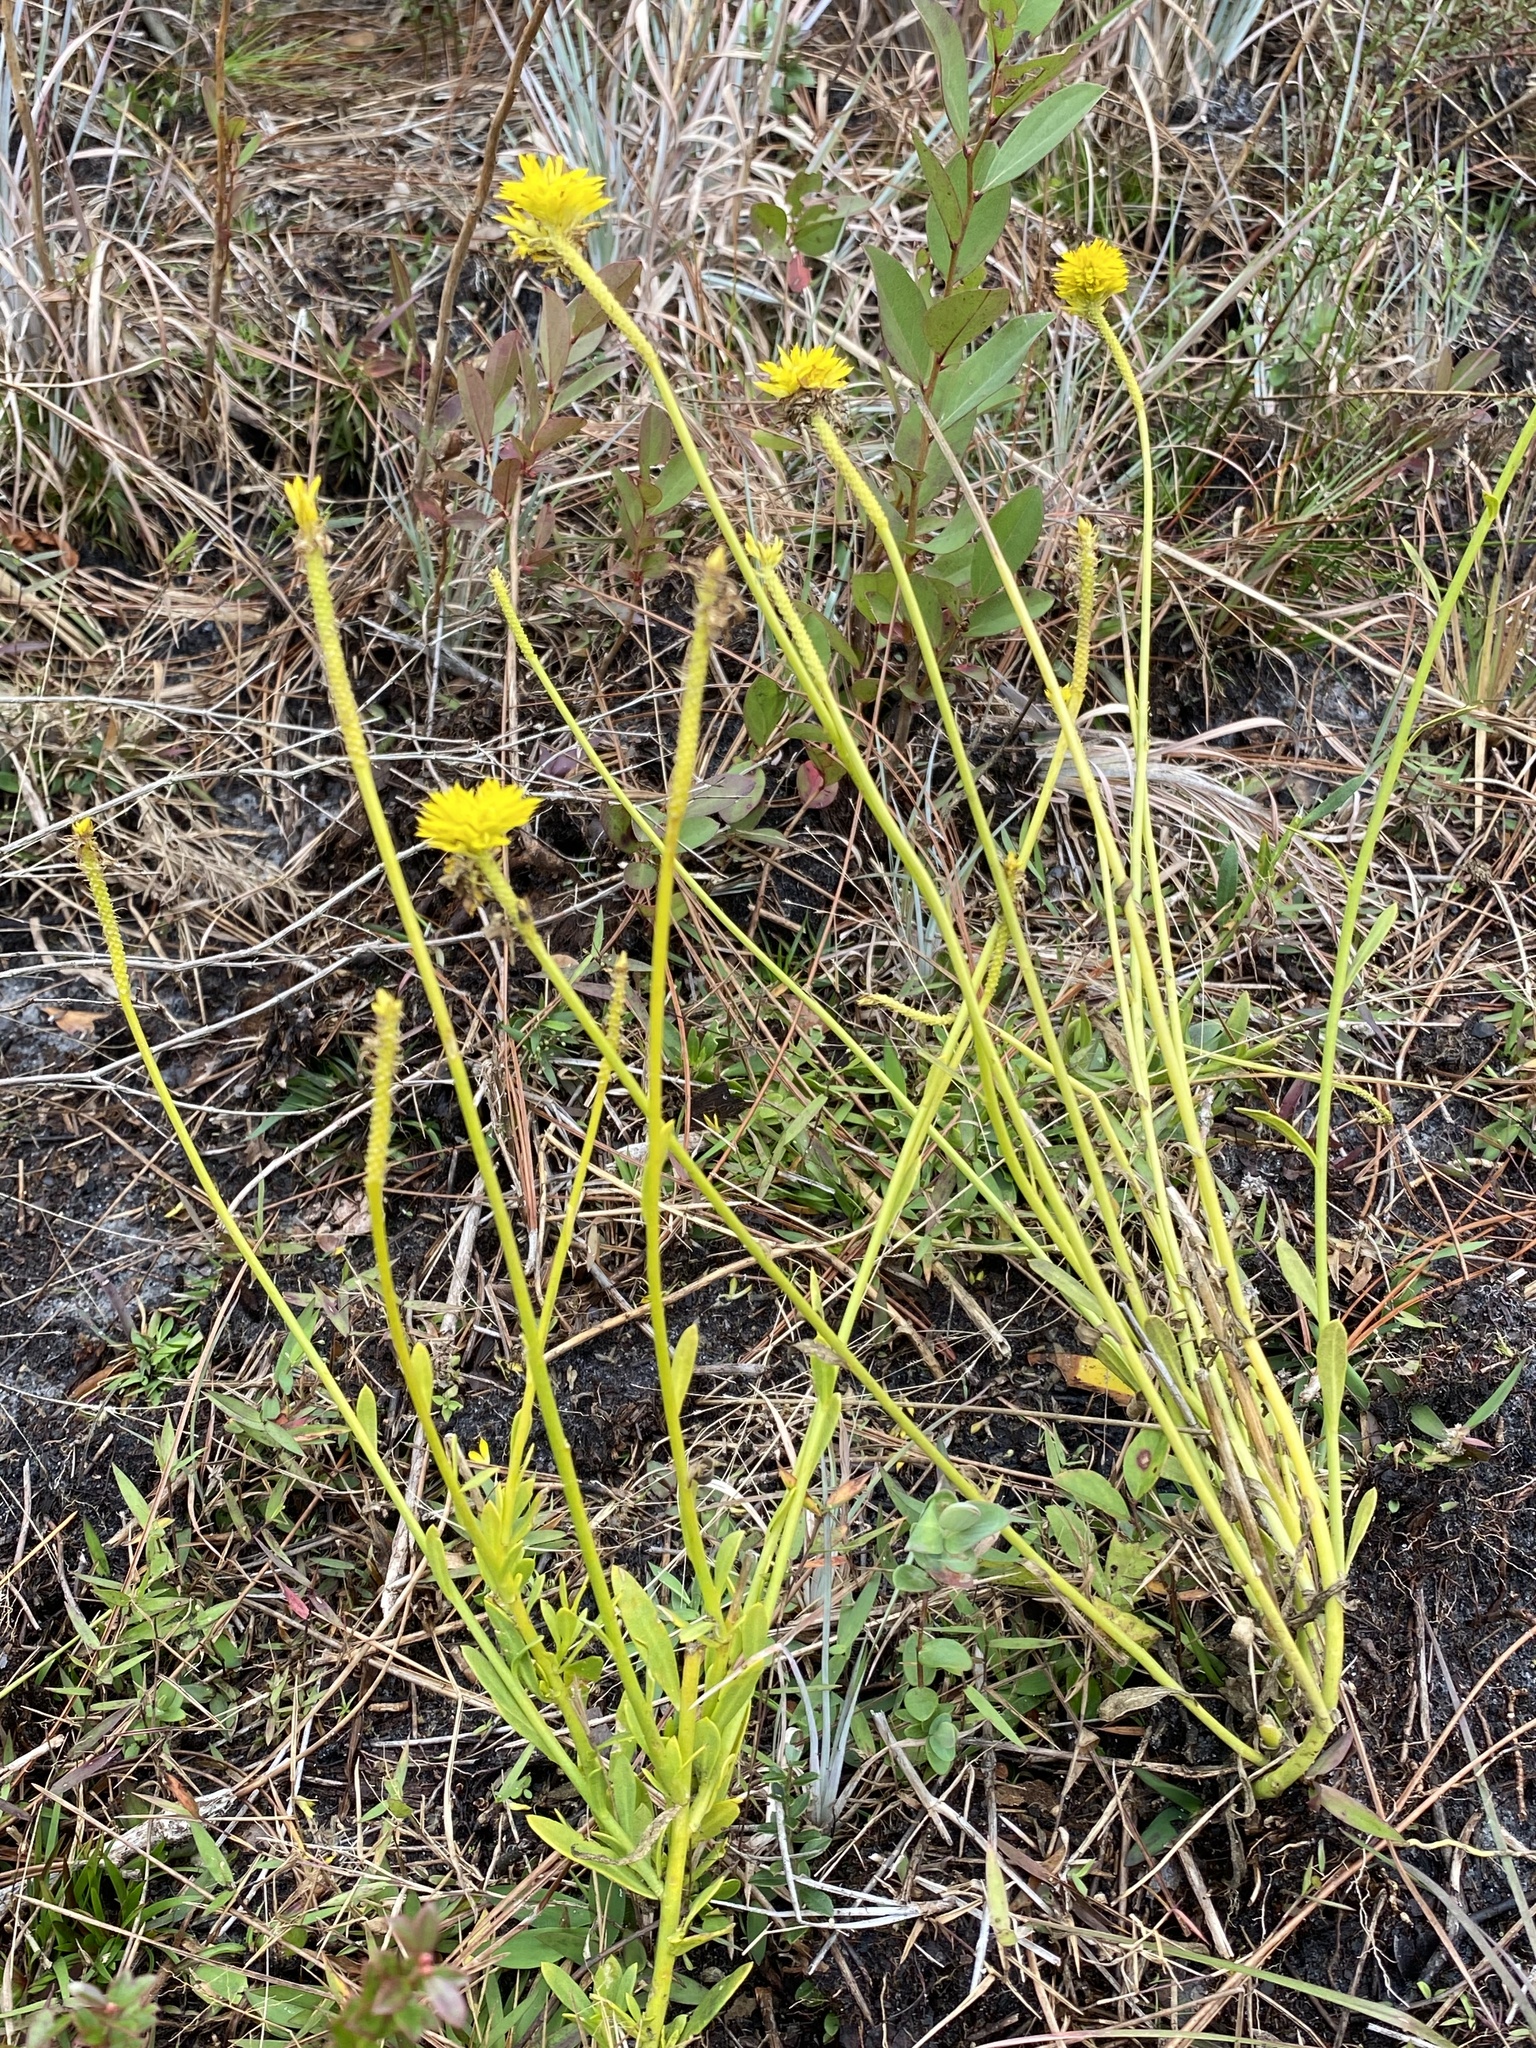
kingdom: Plantae
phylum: Tracheophyta
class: Magnoliopsida
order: Fabales
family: Polygalaceae
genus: Polygala
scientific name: Polygala rugelii
